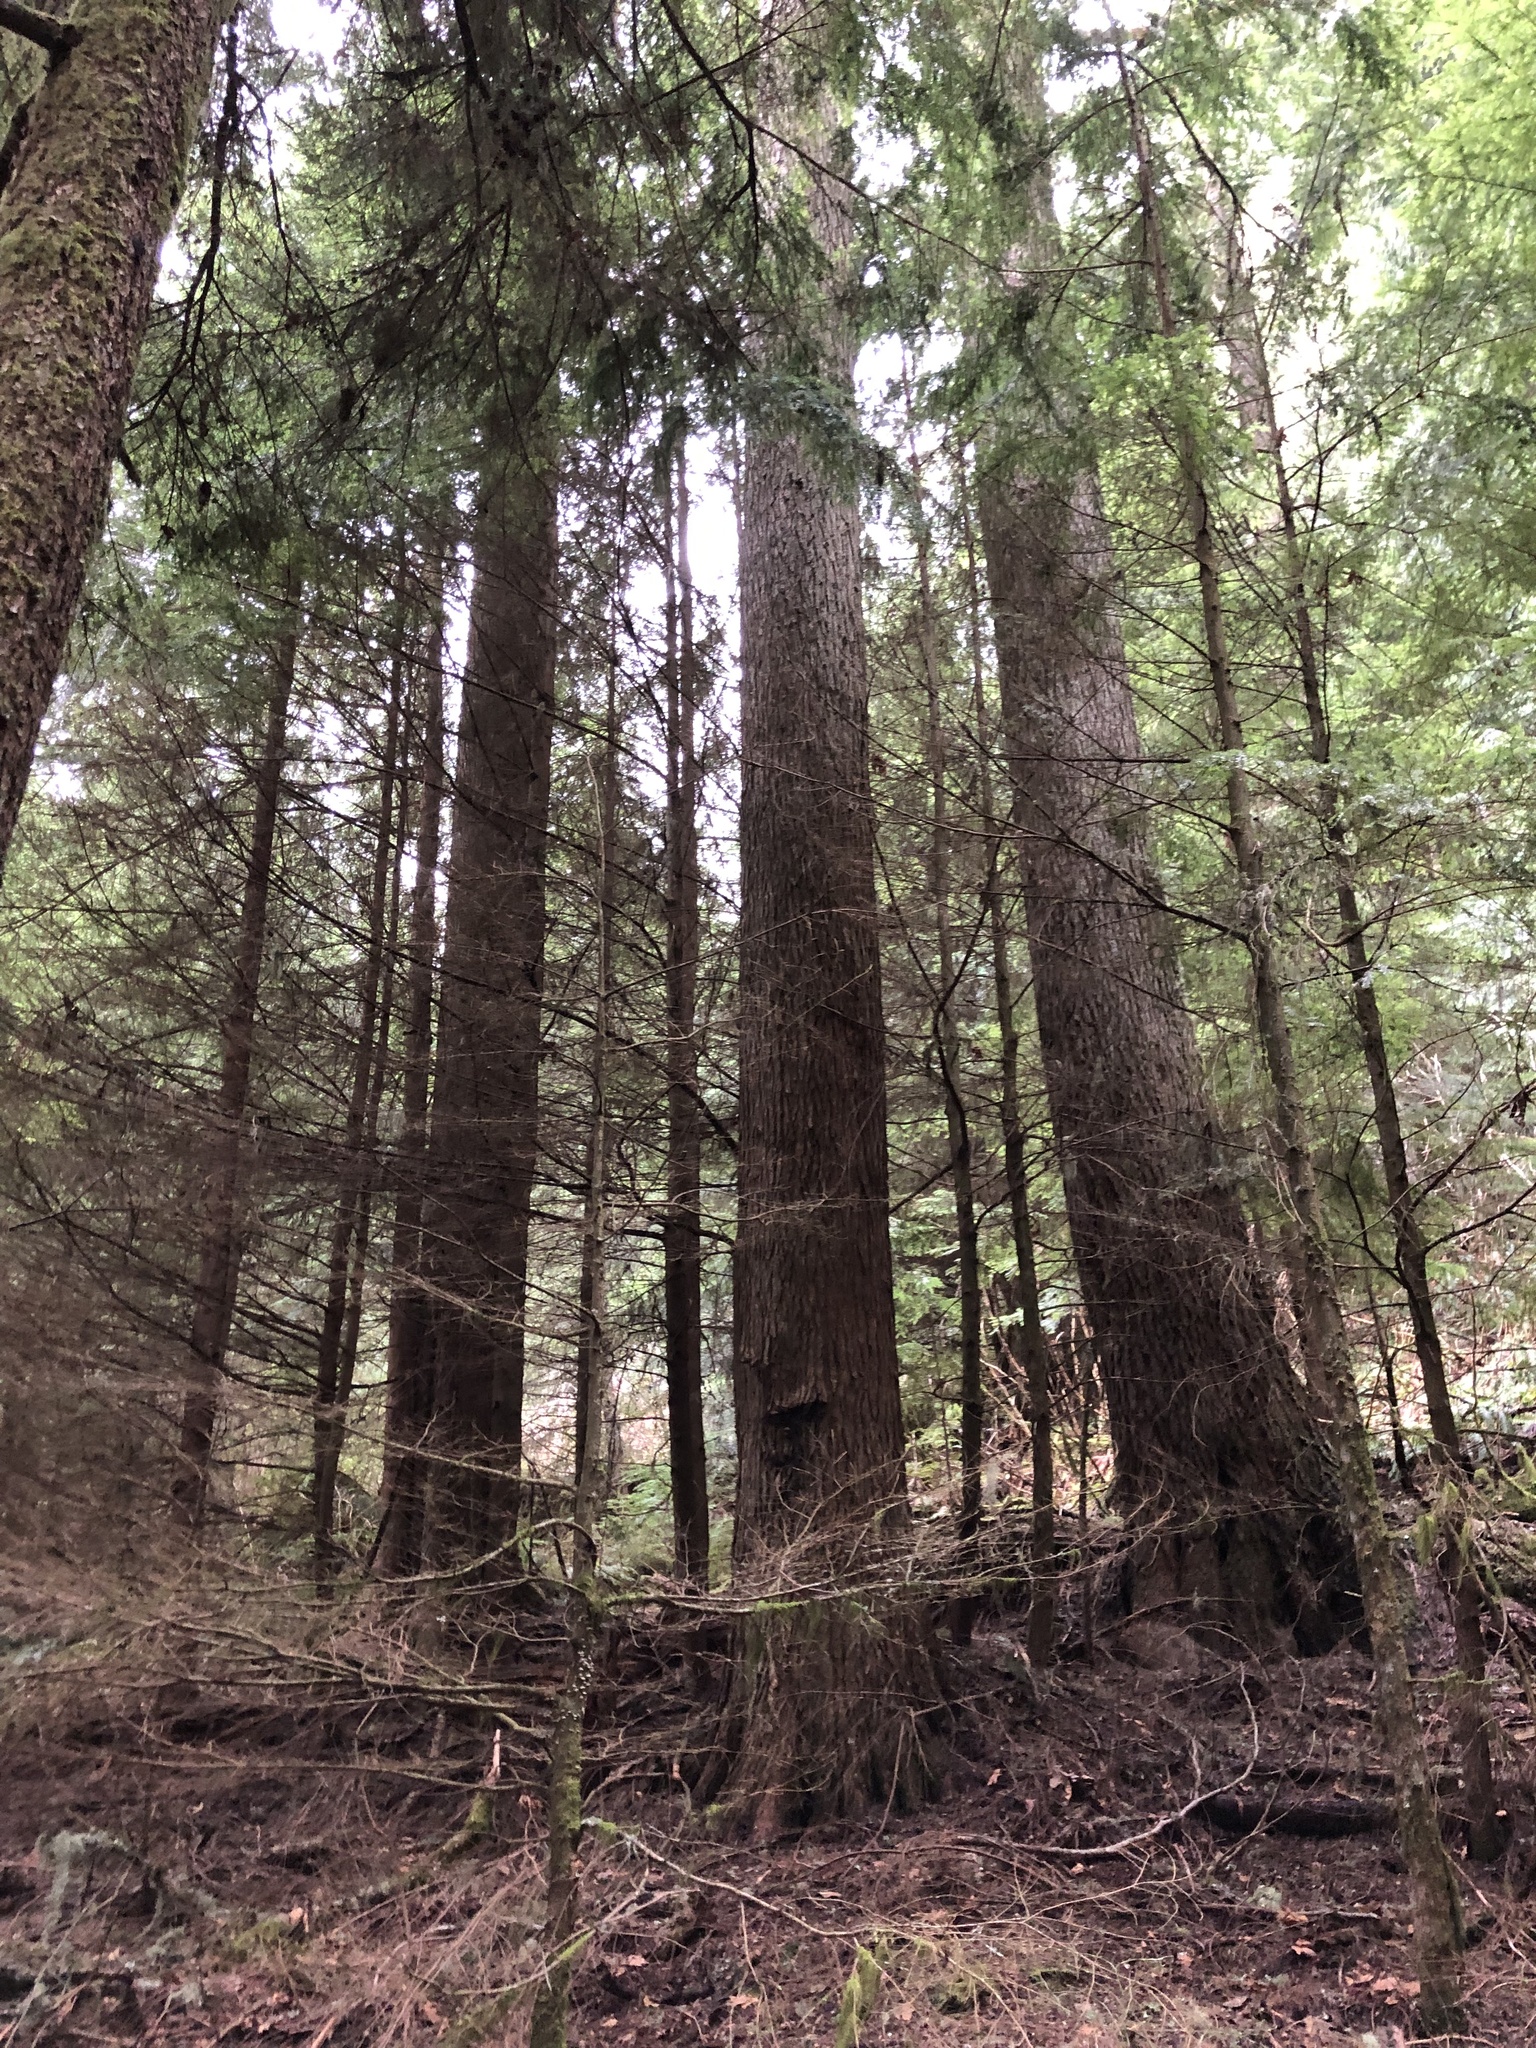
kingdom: Plantae
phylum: Tracheophyta
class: Pinopsida
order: Pinales
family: Pinaceae
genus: Tsuga
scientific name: Tsuga heterophylla
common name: Western hemlock
